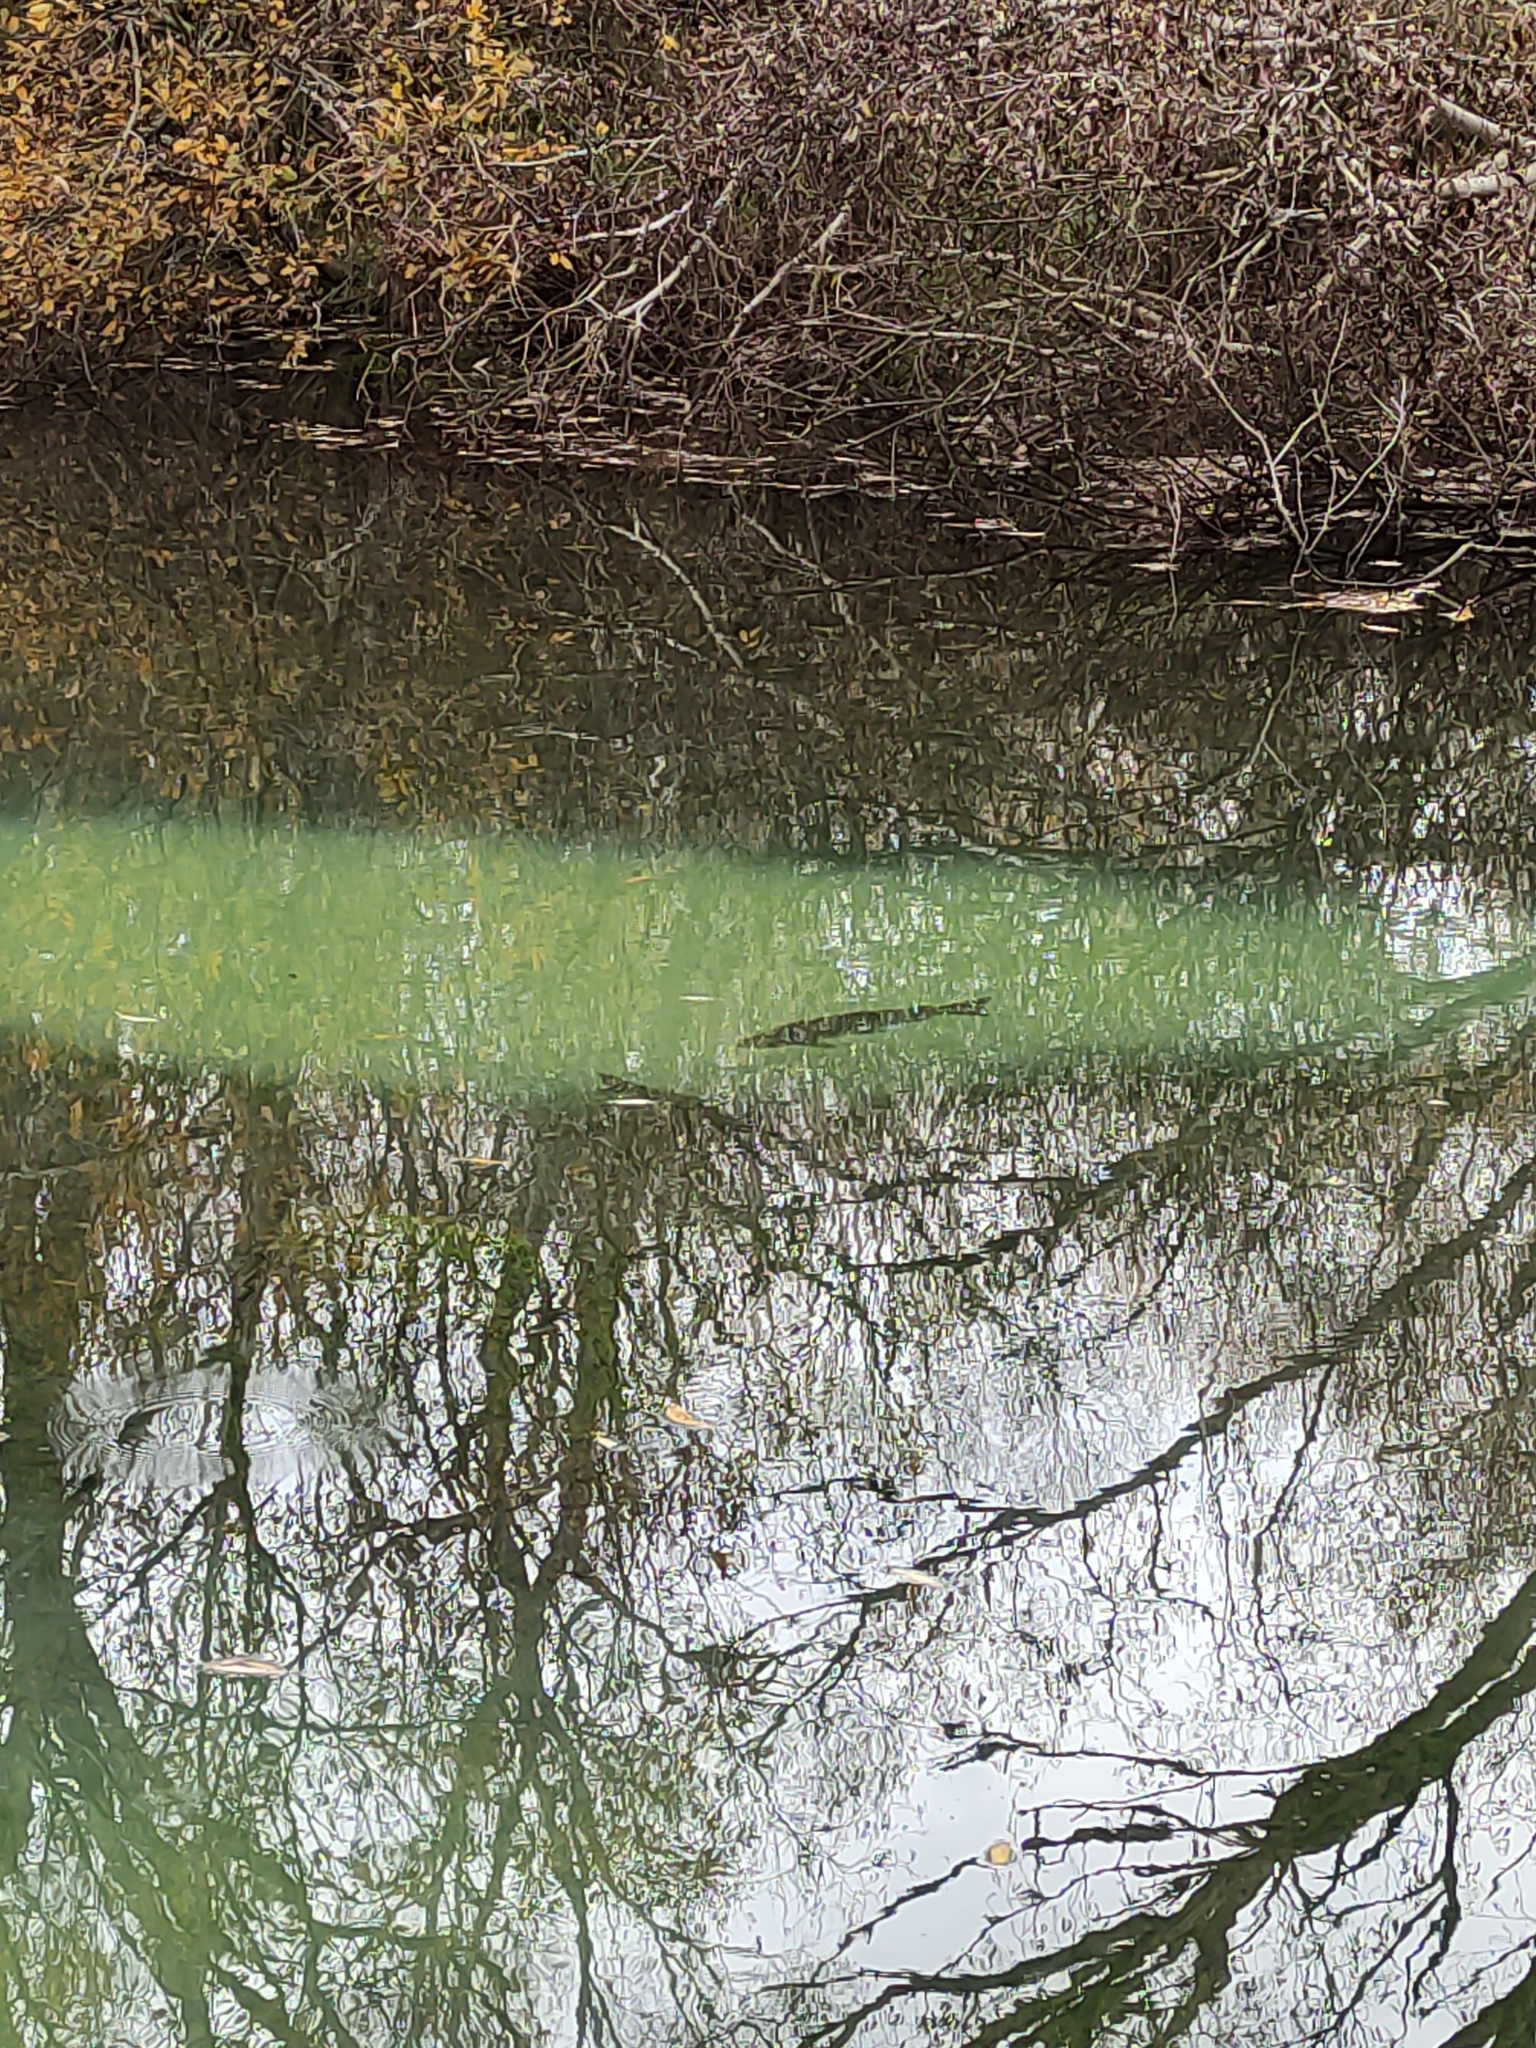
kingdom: Animalia
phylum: Chordata
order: Salmoniformes
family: Salmonidae
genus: Salmo
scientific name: Salmo trutta
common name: Brown trout
